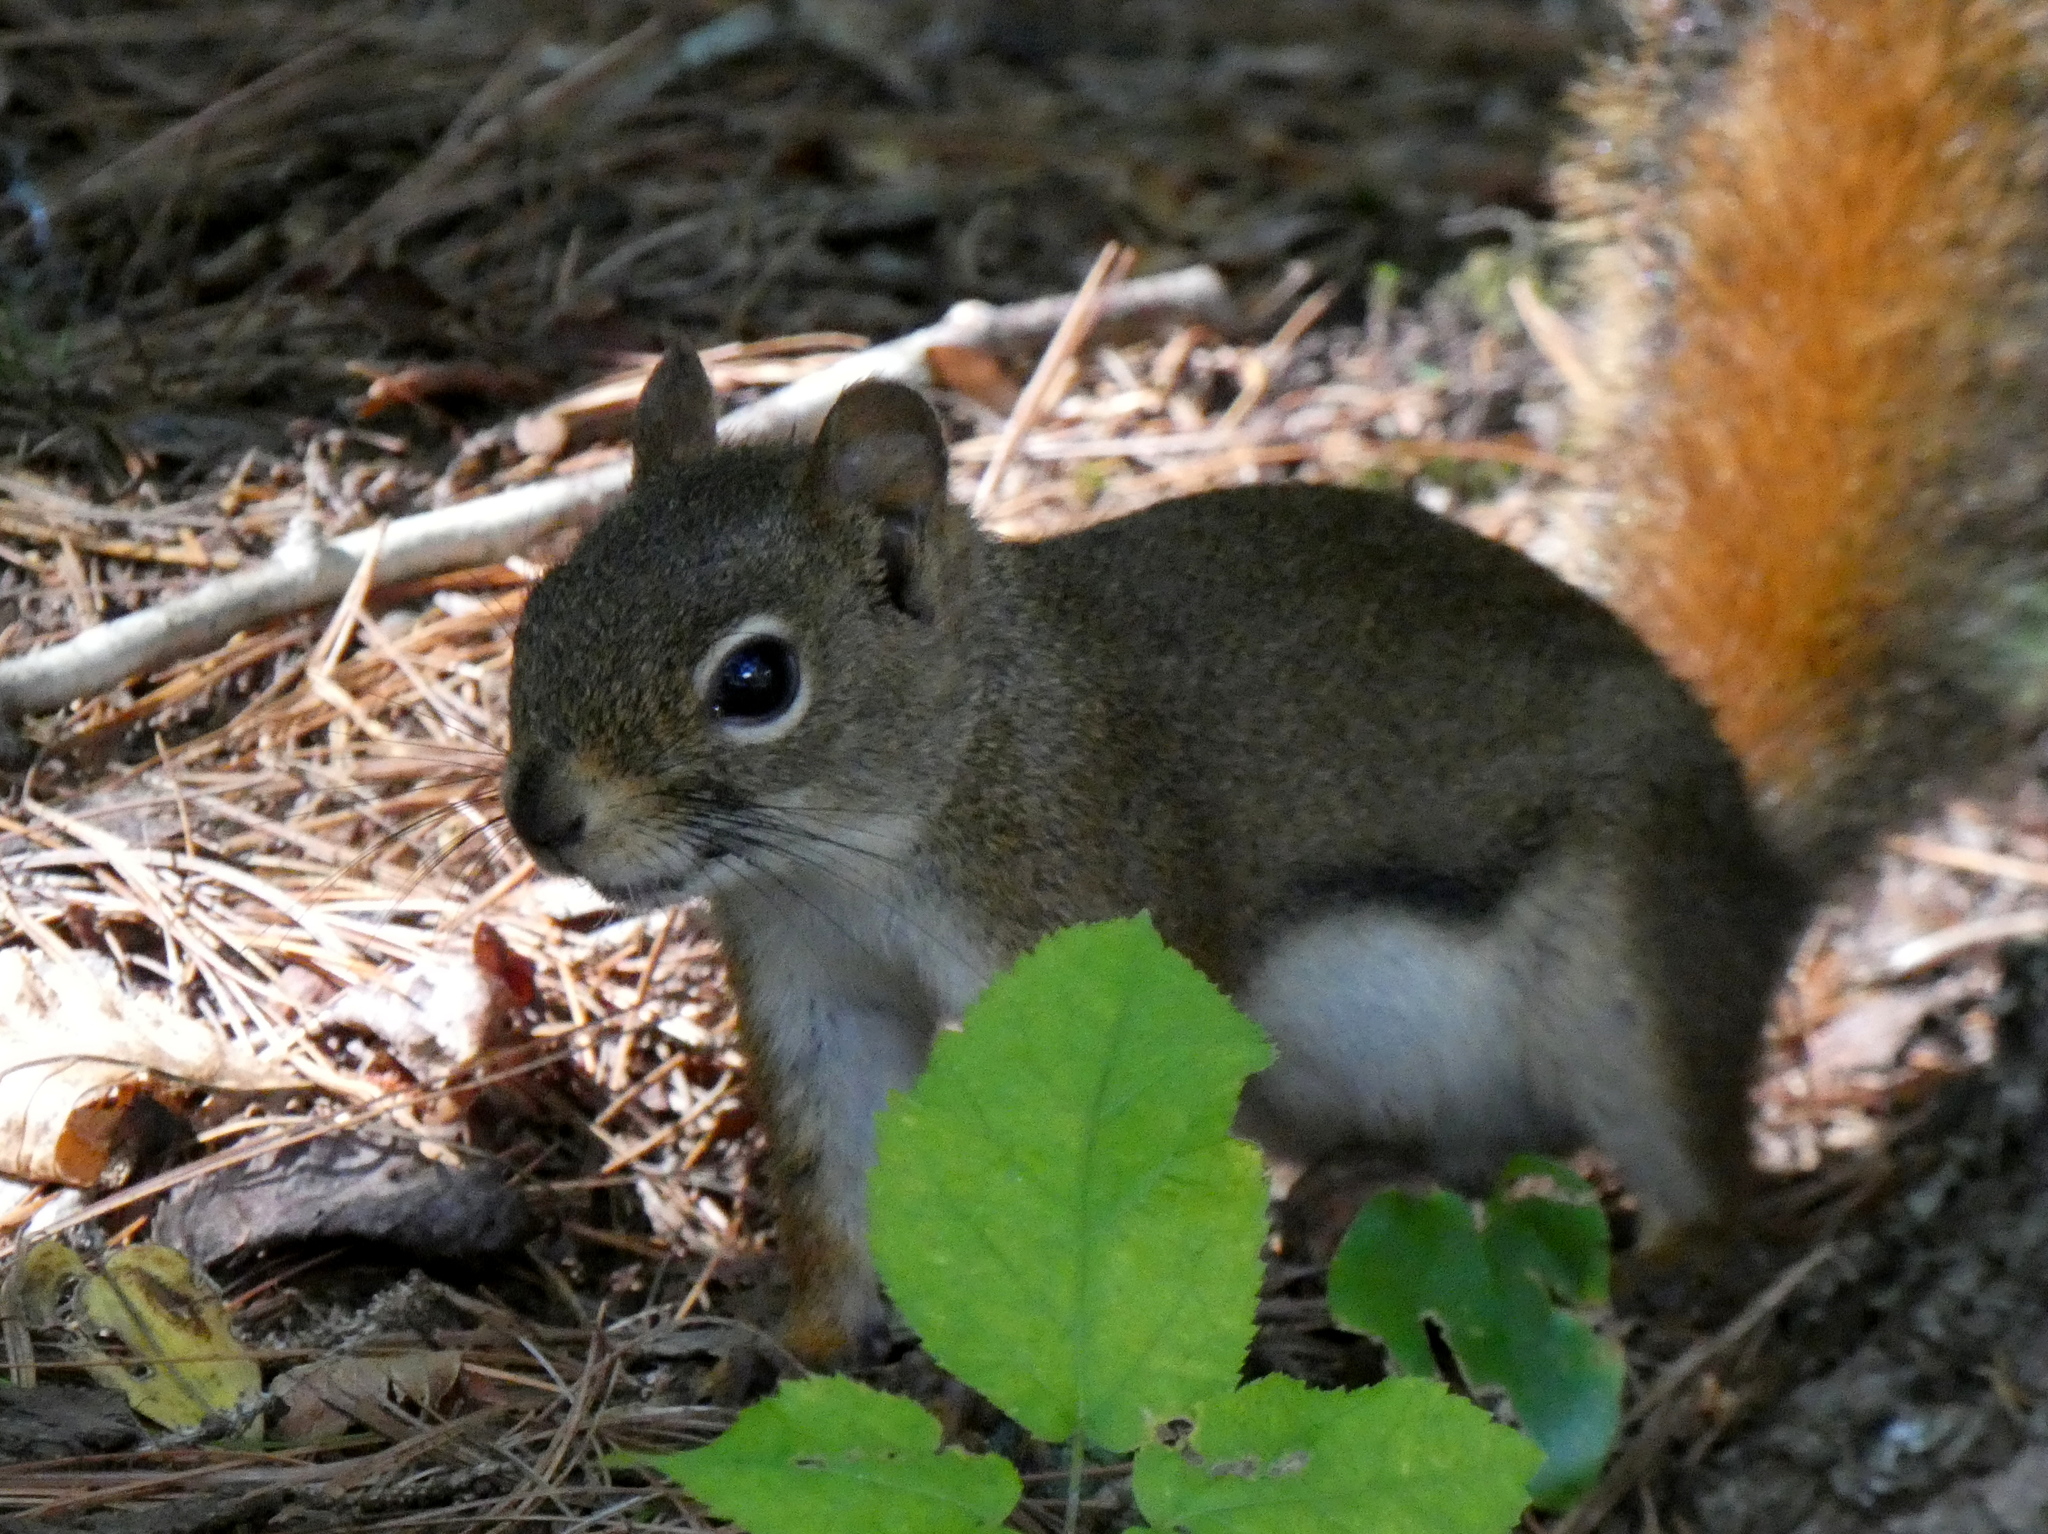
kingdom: Animalia
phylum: Chordata
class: Mammalia
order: Rodentia
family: Sciuridae
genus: Tamiasciurus
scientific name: Tamiasciurus hudsonicus
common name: Red squirrel
